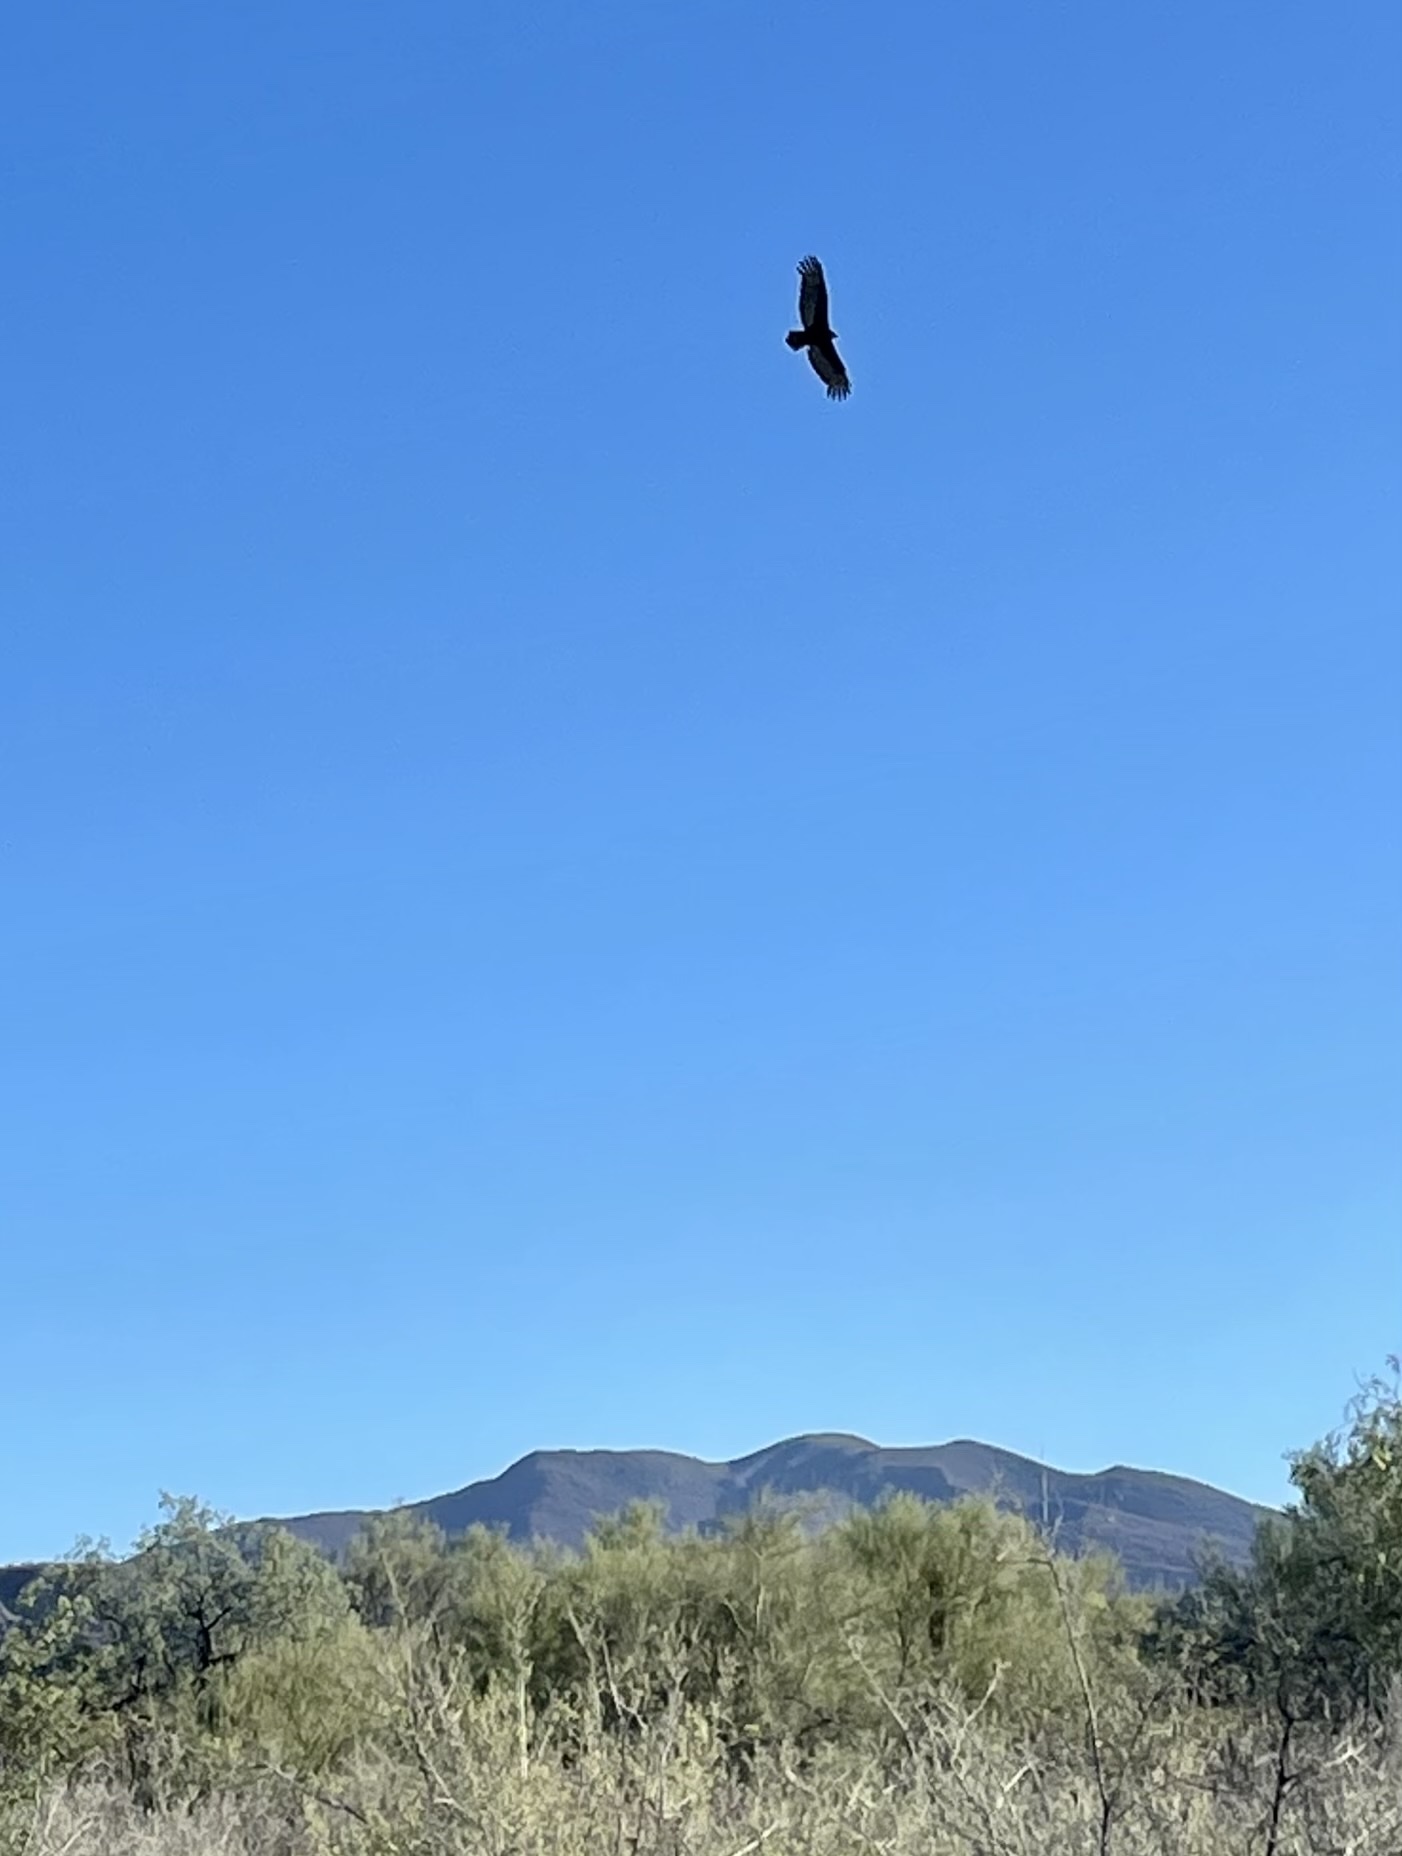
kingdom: Animalia
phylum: Chordata
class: Aves
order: Accipitriformes
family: Cathartidae
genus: Cathartes
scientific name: Cathartes aura
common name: Turkey vulture
